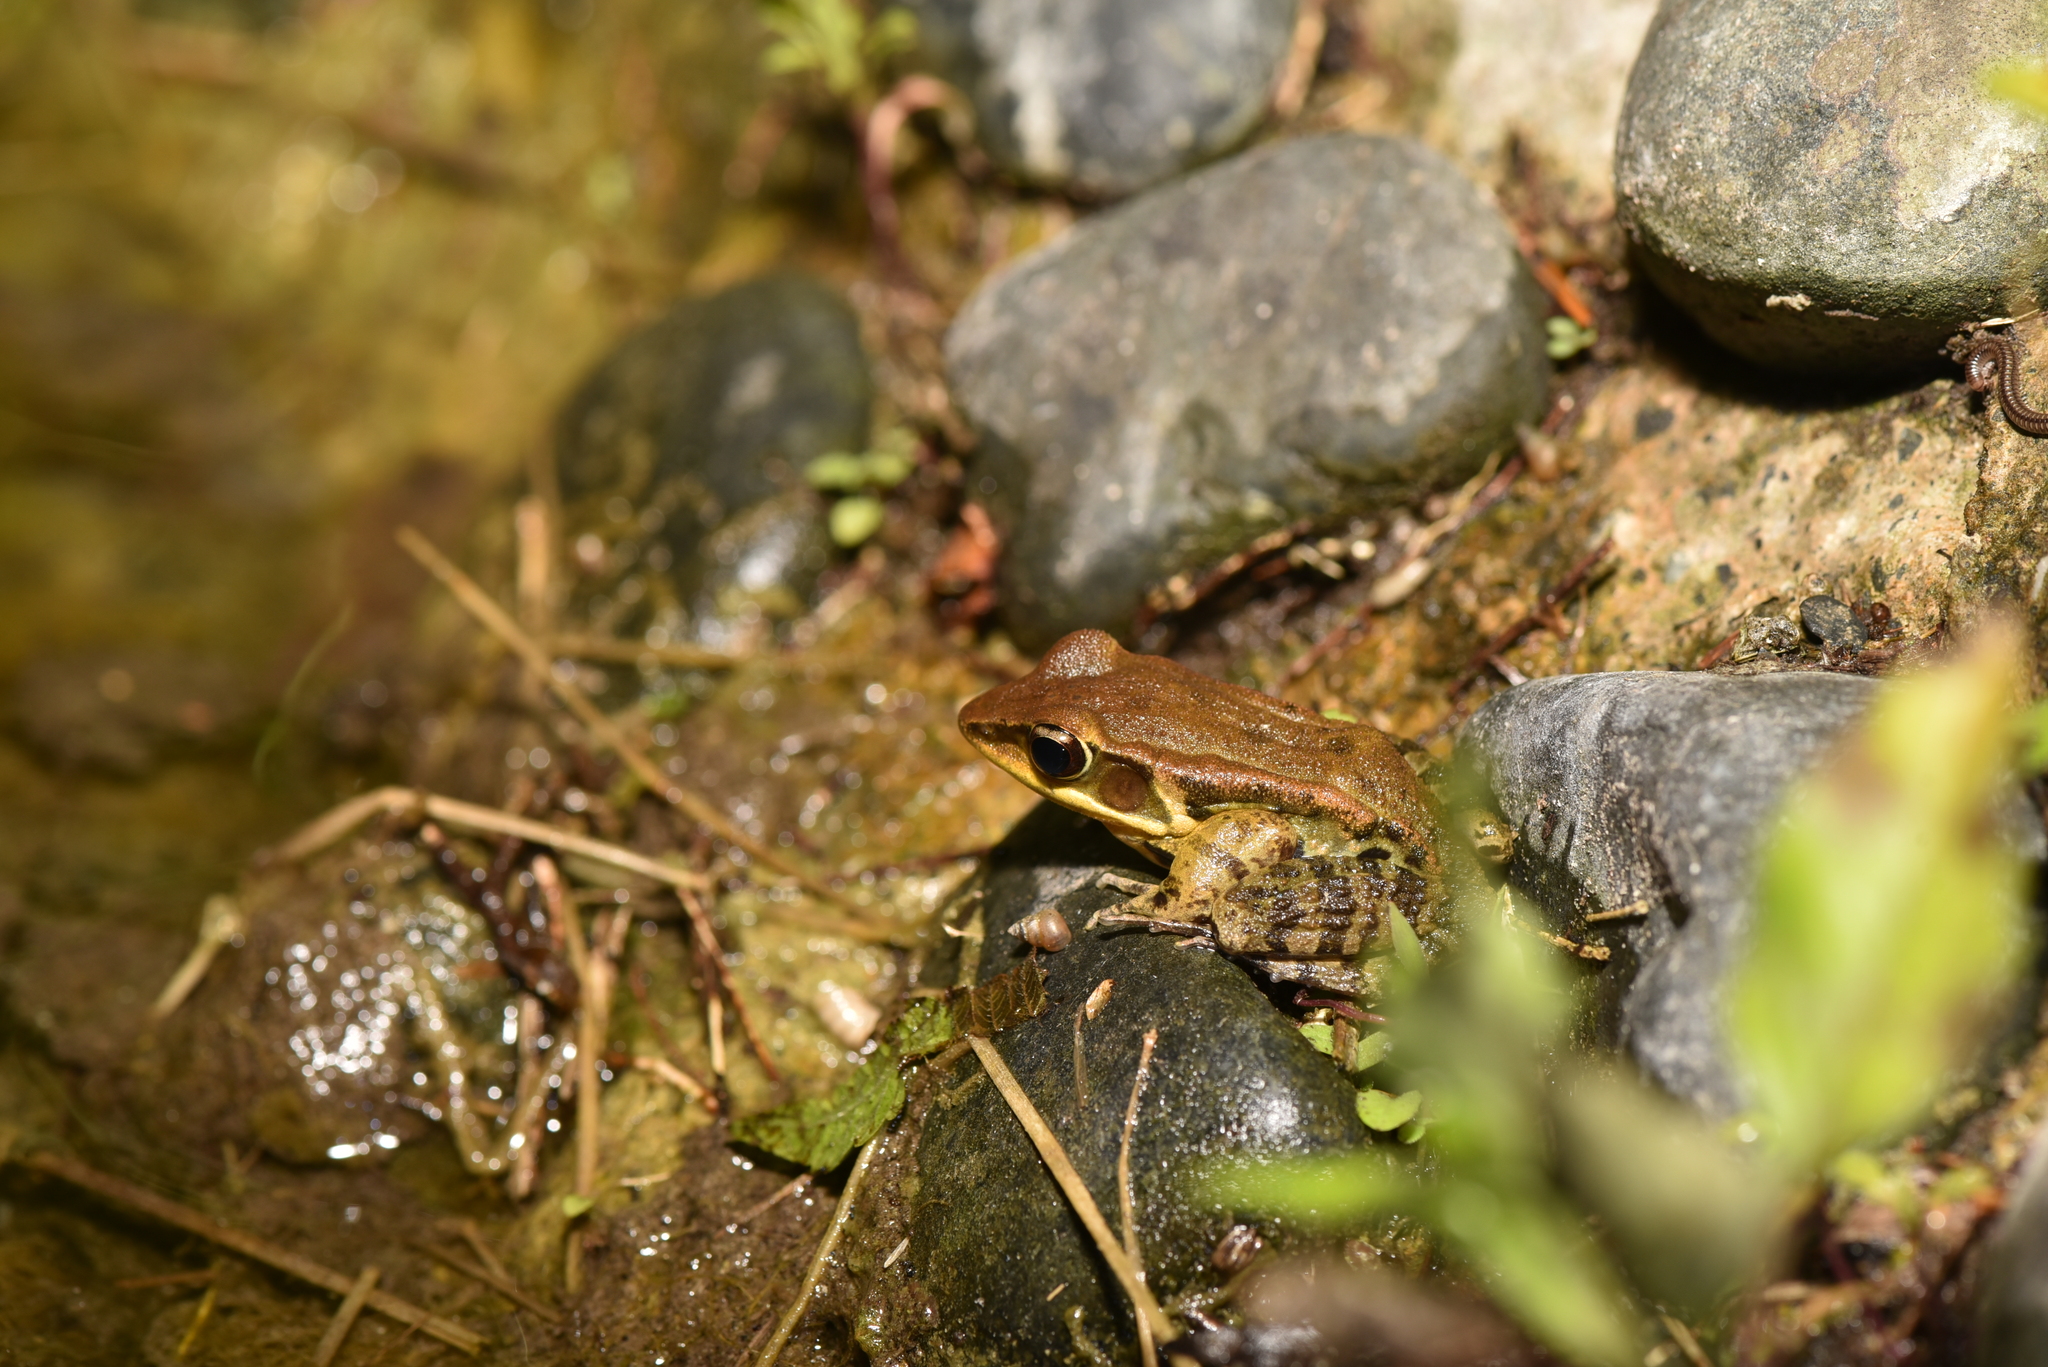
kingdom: Animalia
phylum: Chordata
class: Amphibia
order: Anura
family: Ranidae
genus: Hylarana
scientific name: Hylarana latouchii
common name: Broad-folded frog
